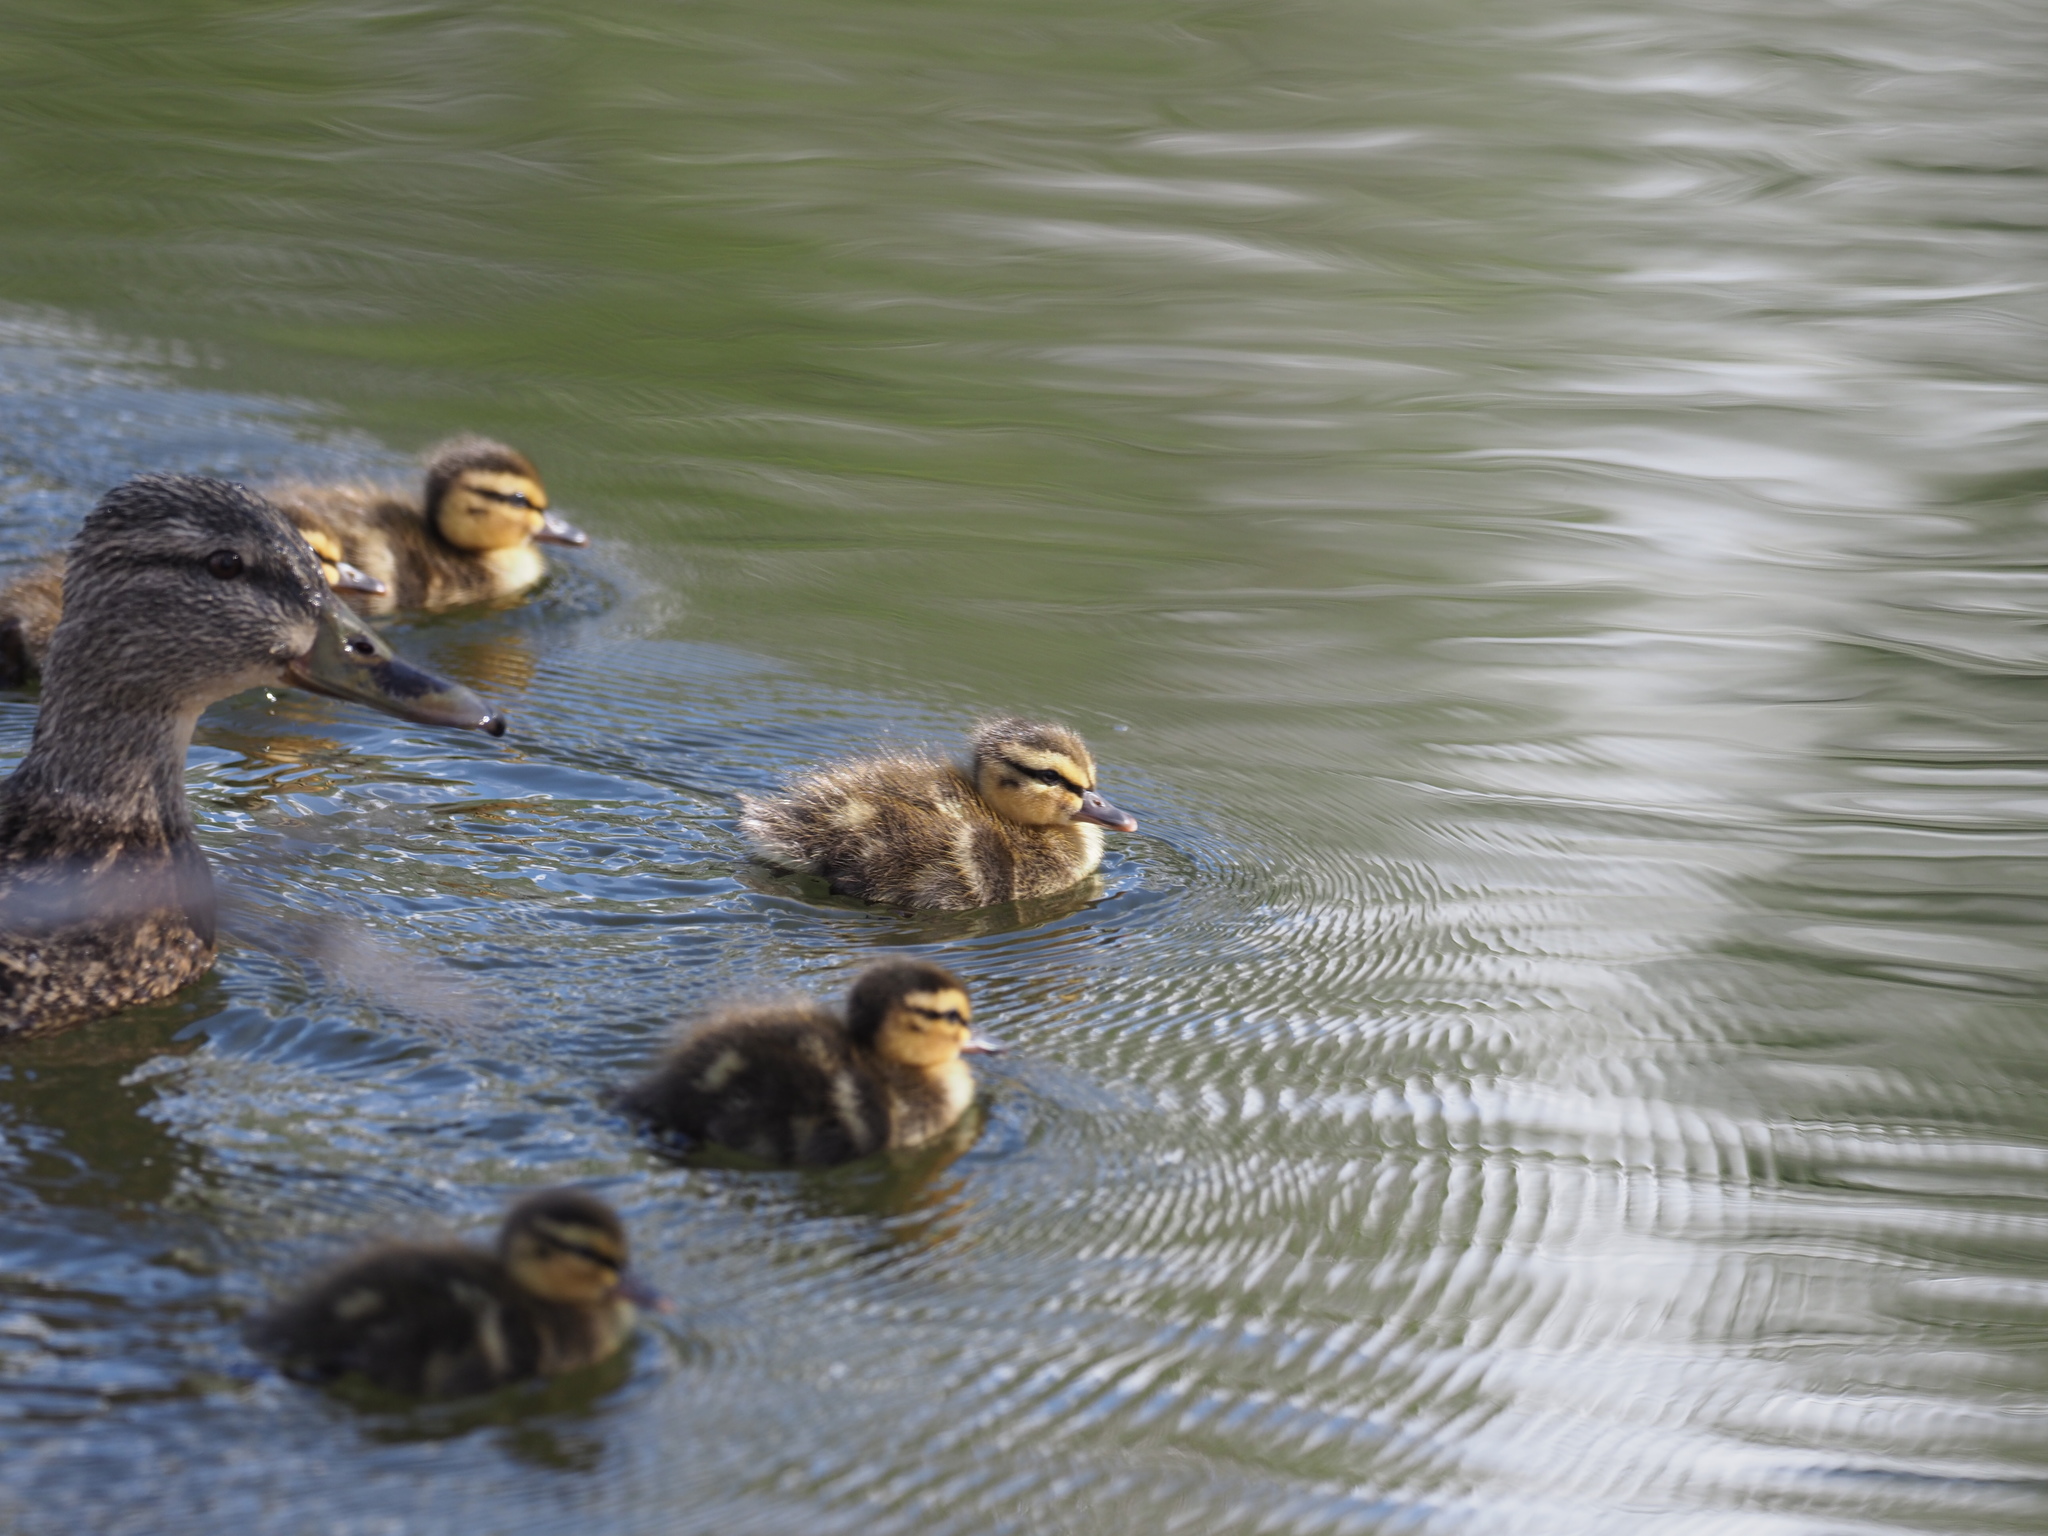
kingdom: Animalia
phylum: Chordata
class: Aves
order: Anseriformes
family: Anatidae
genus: Anas
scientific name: Anas platyrhynchos
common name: Mallard
